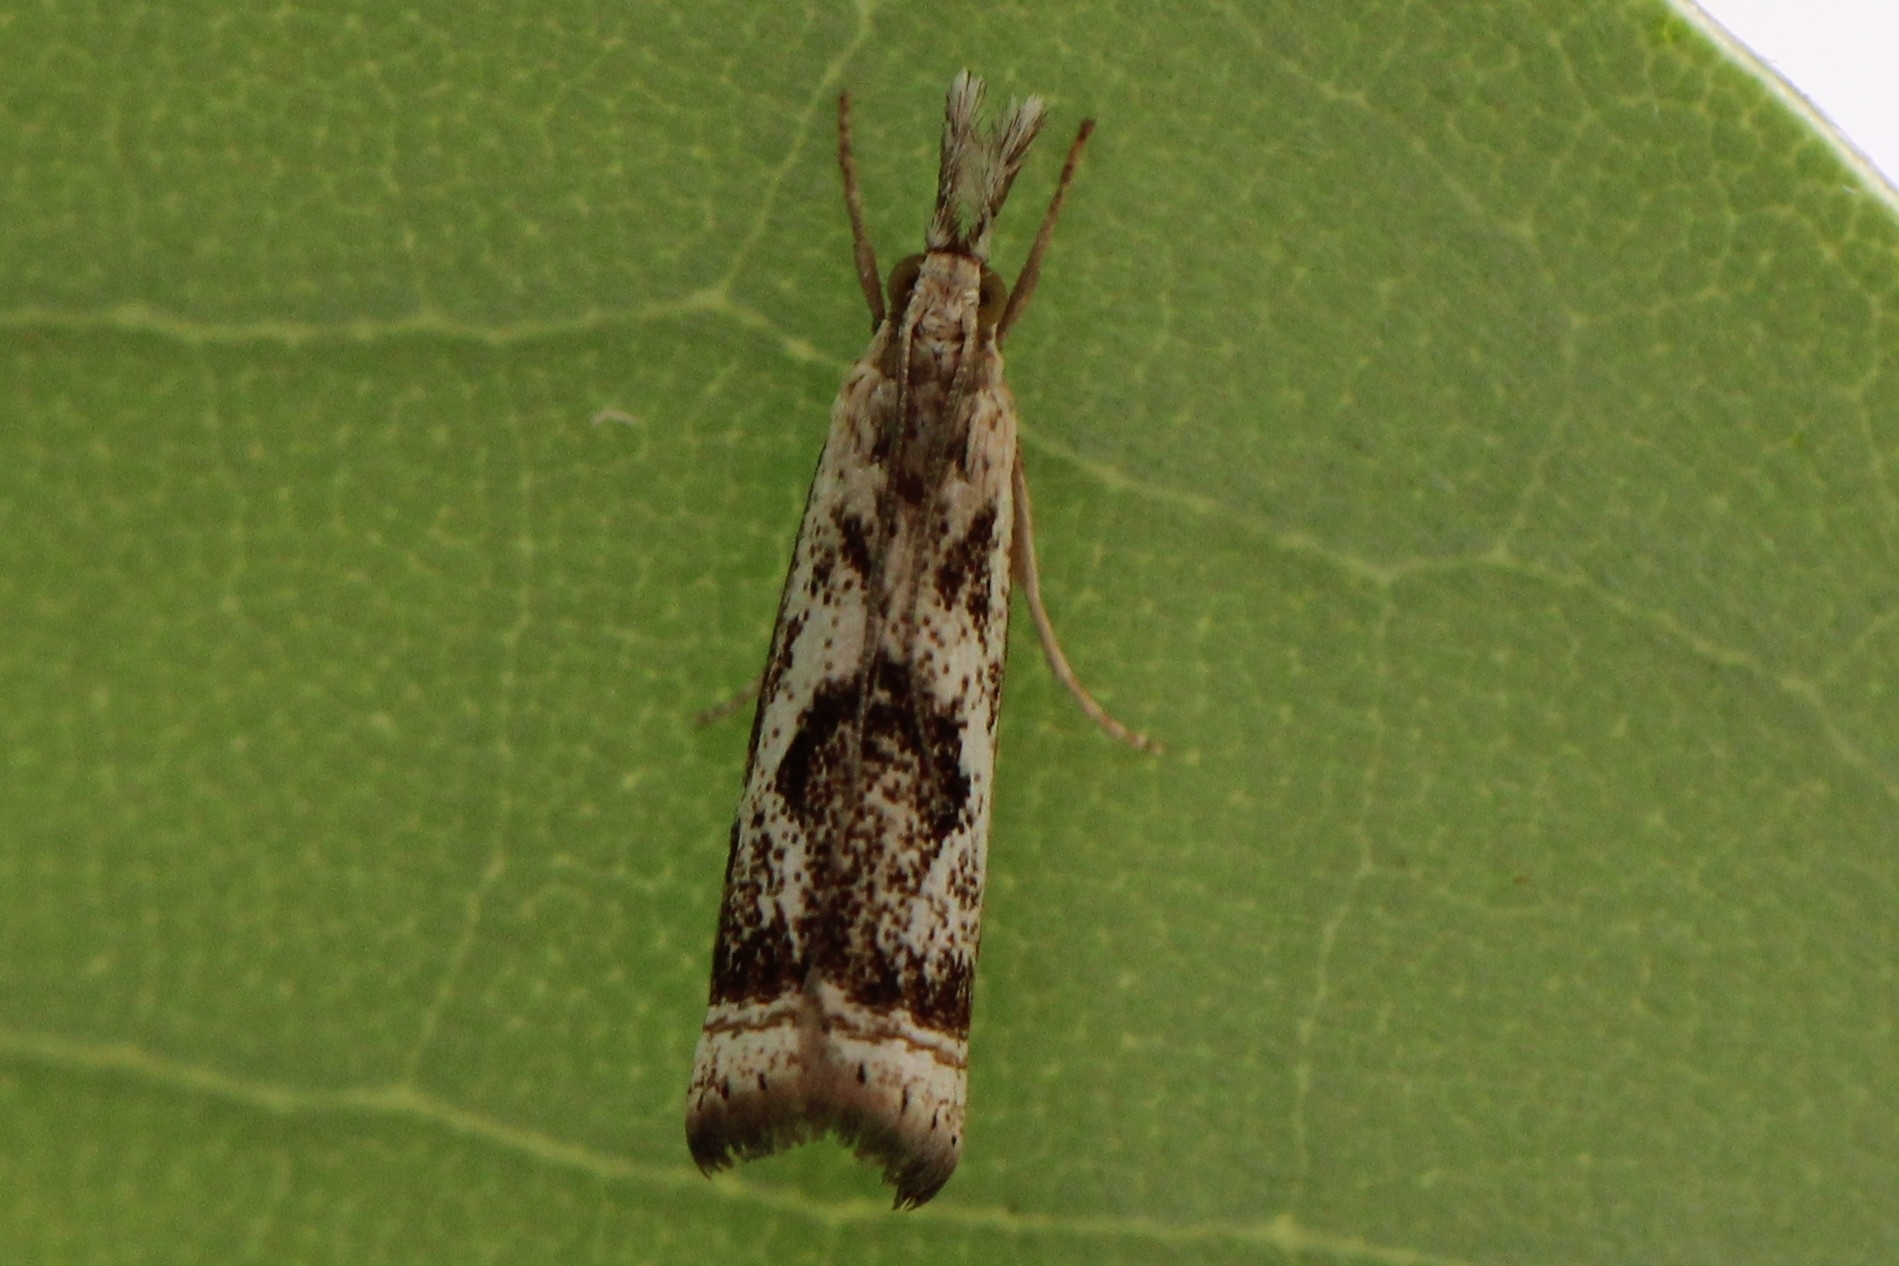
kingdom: Animalia
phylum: Arthropoda
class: Insecta
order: Lepidoptera
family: Crambidae
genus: Microcrambus
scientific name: Microcrambus elegans
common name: Elegant grass-veneer
